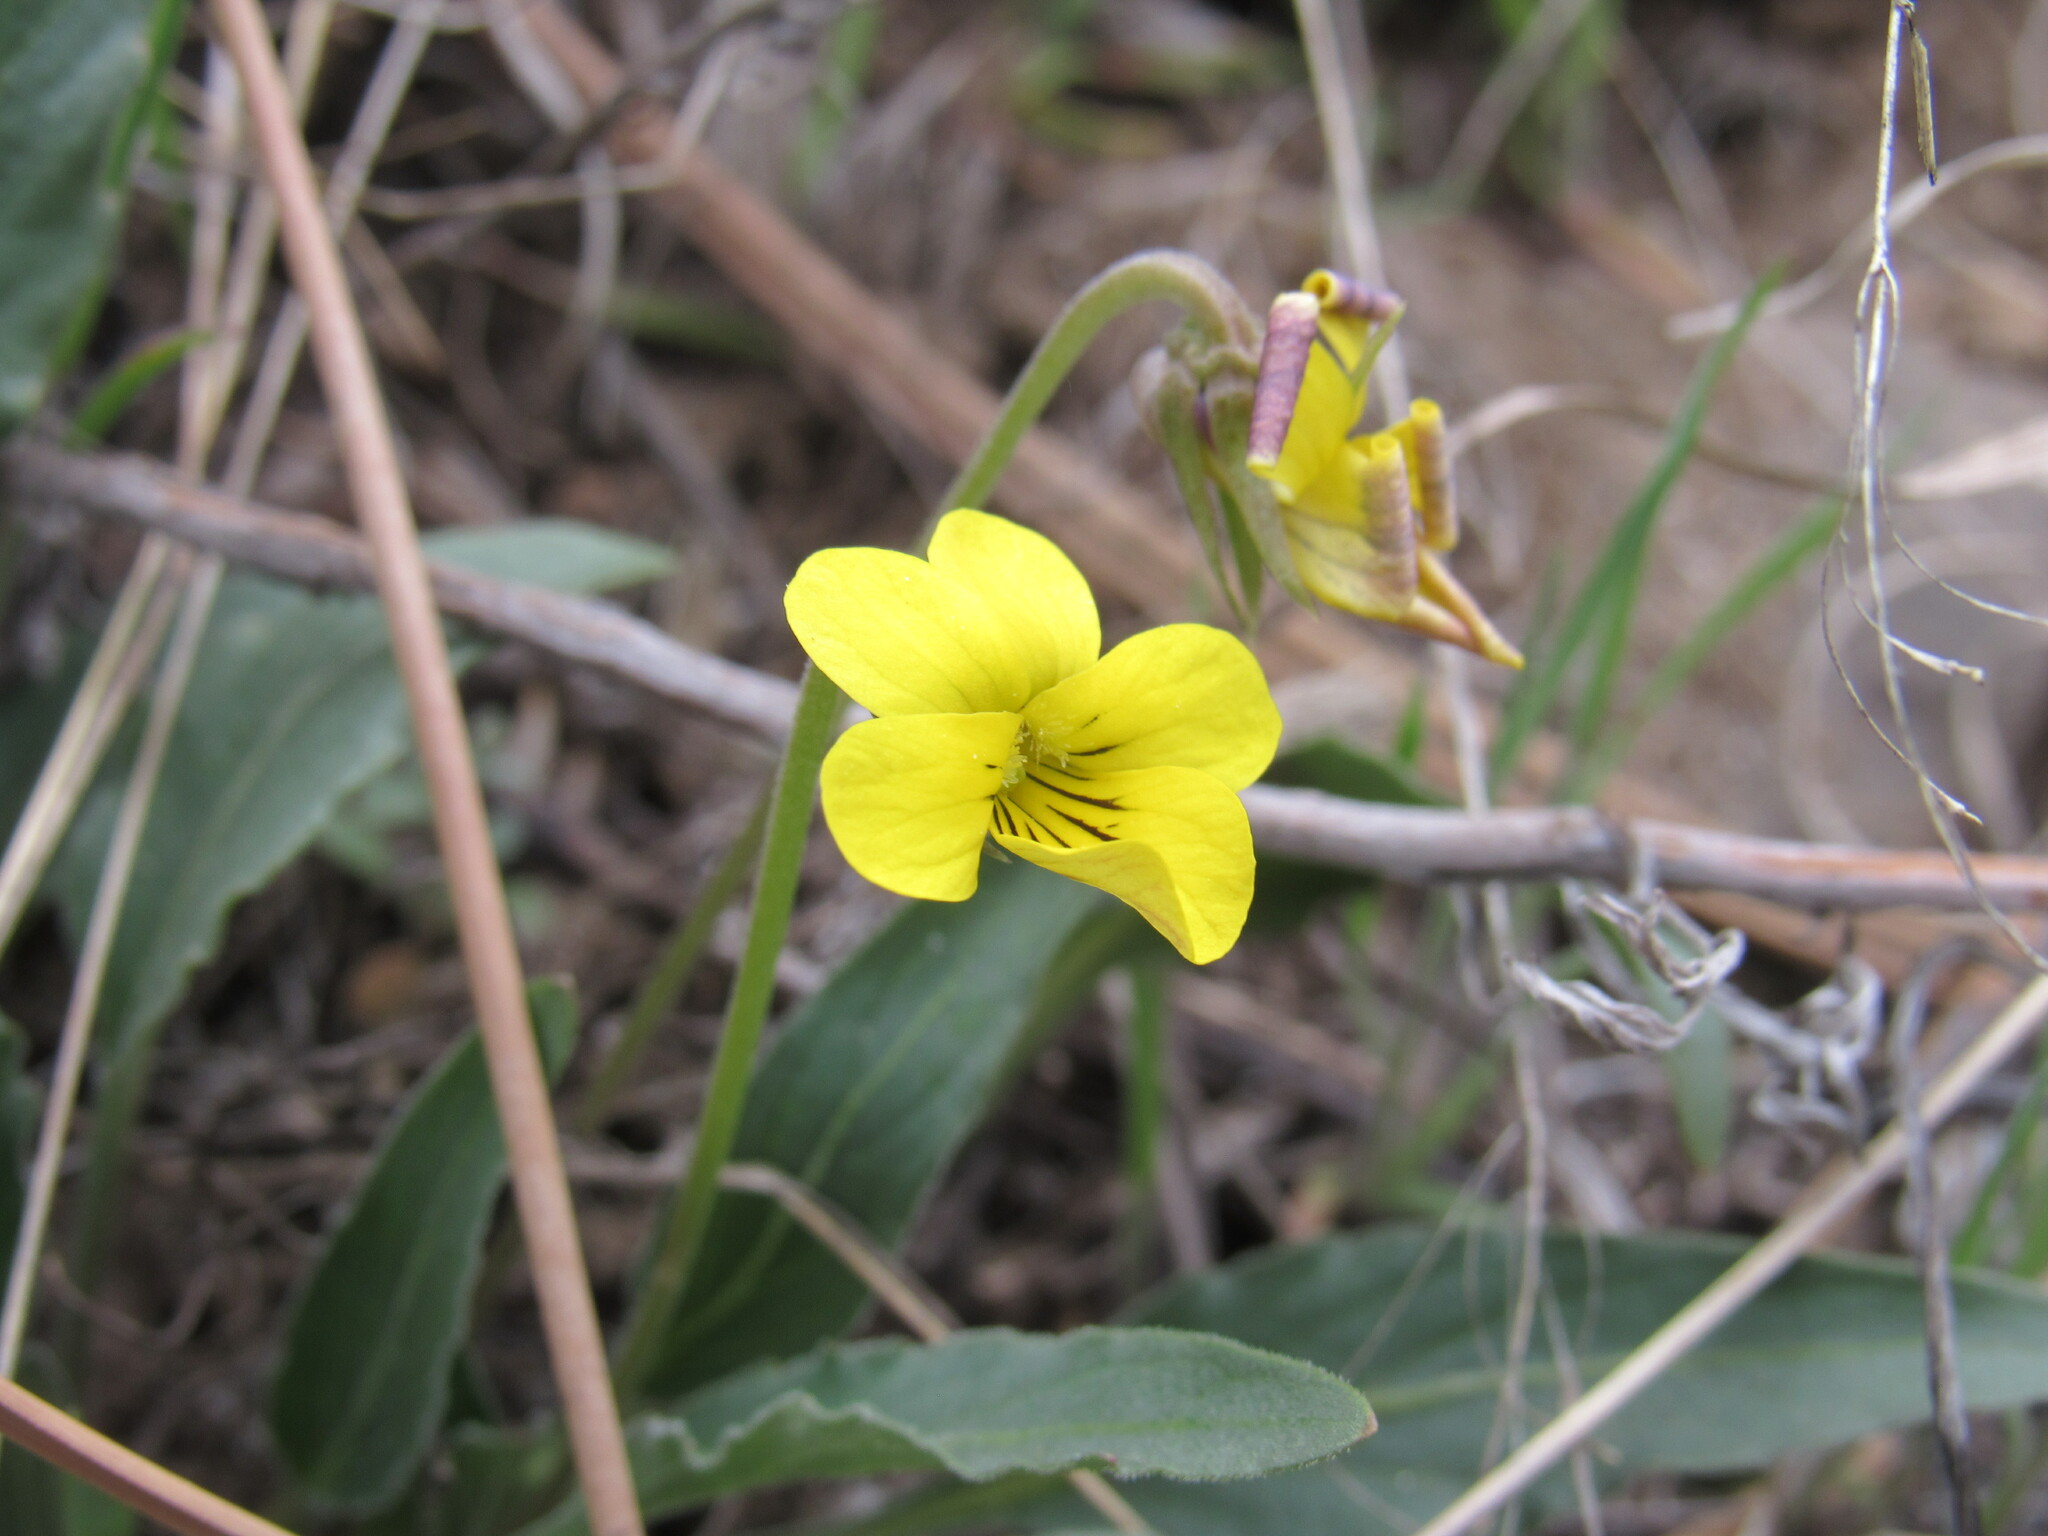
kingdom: Plantae
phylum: Tracheophyta
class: Magnoliopsida
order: Malpighiales
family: Violaceae
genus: Viola
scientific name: Viola nuttallii
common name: Yellow prairie violet
